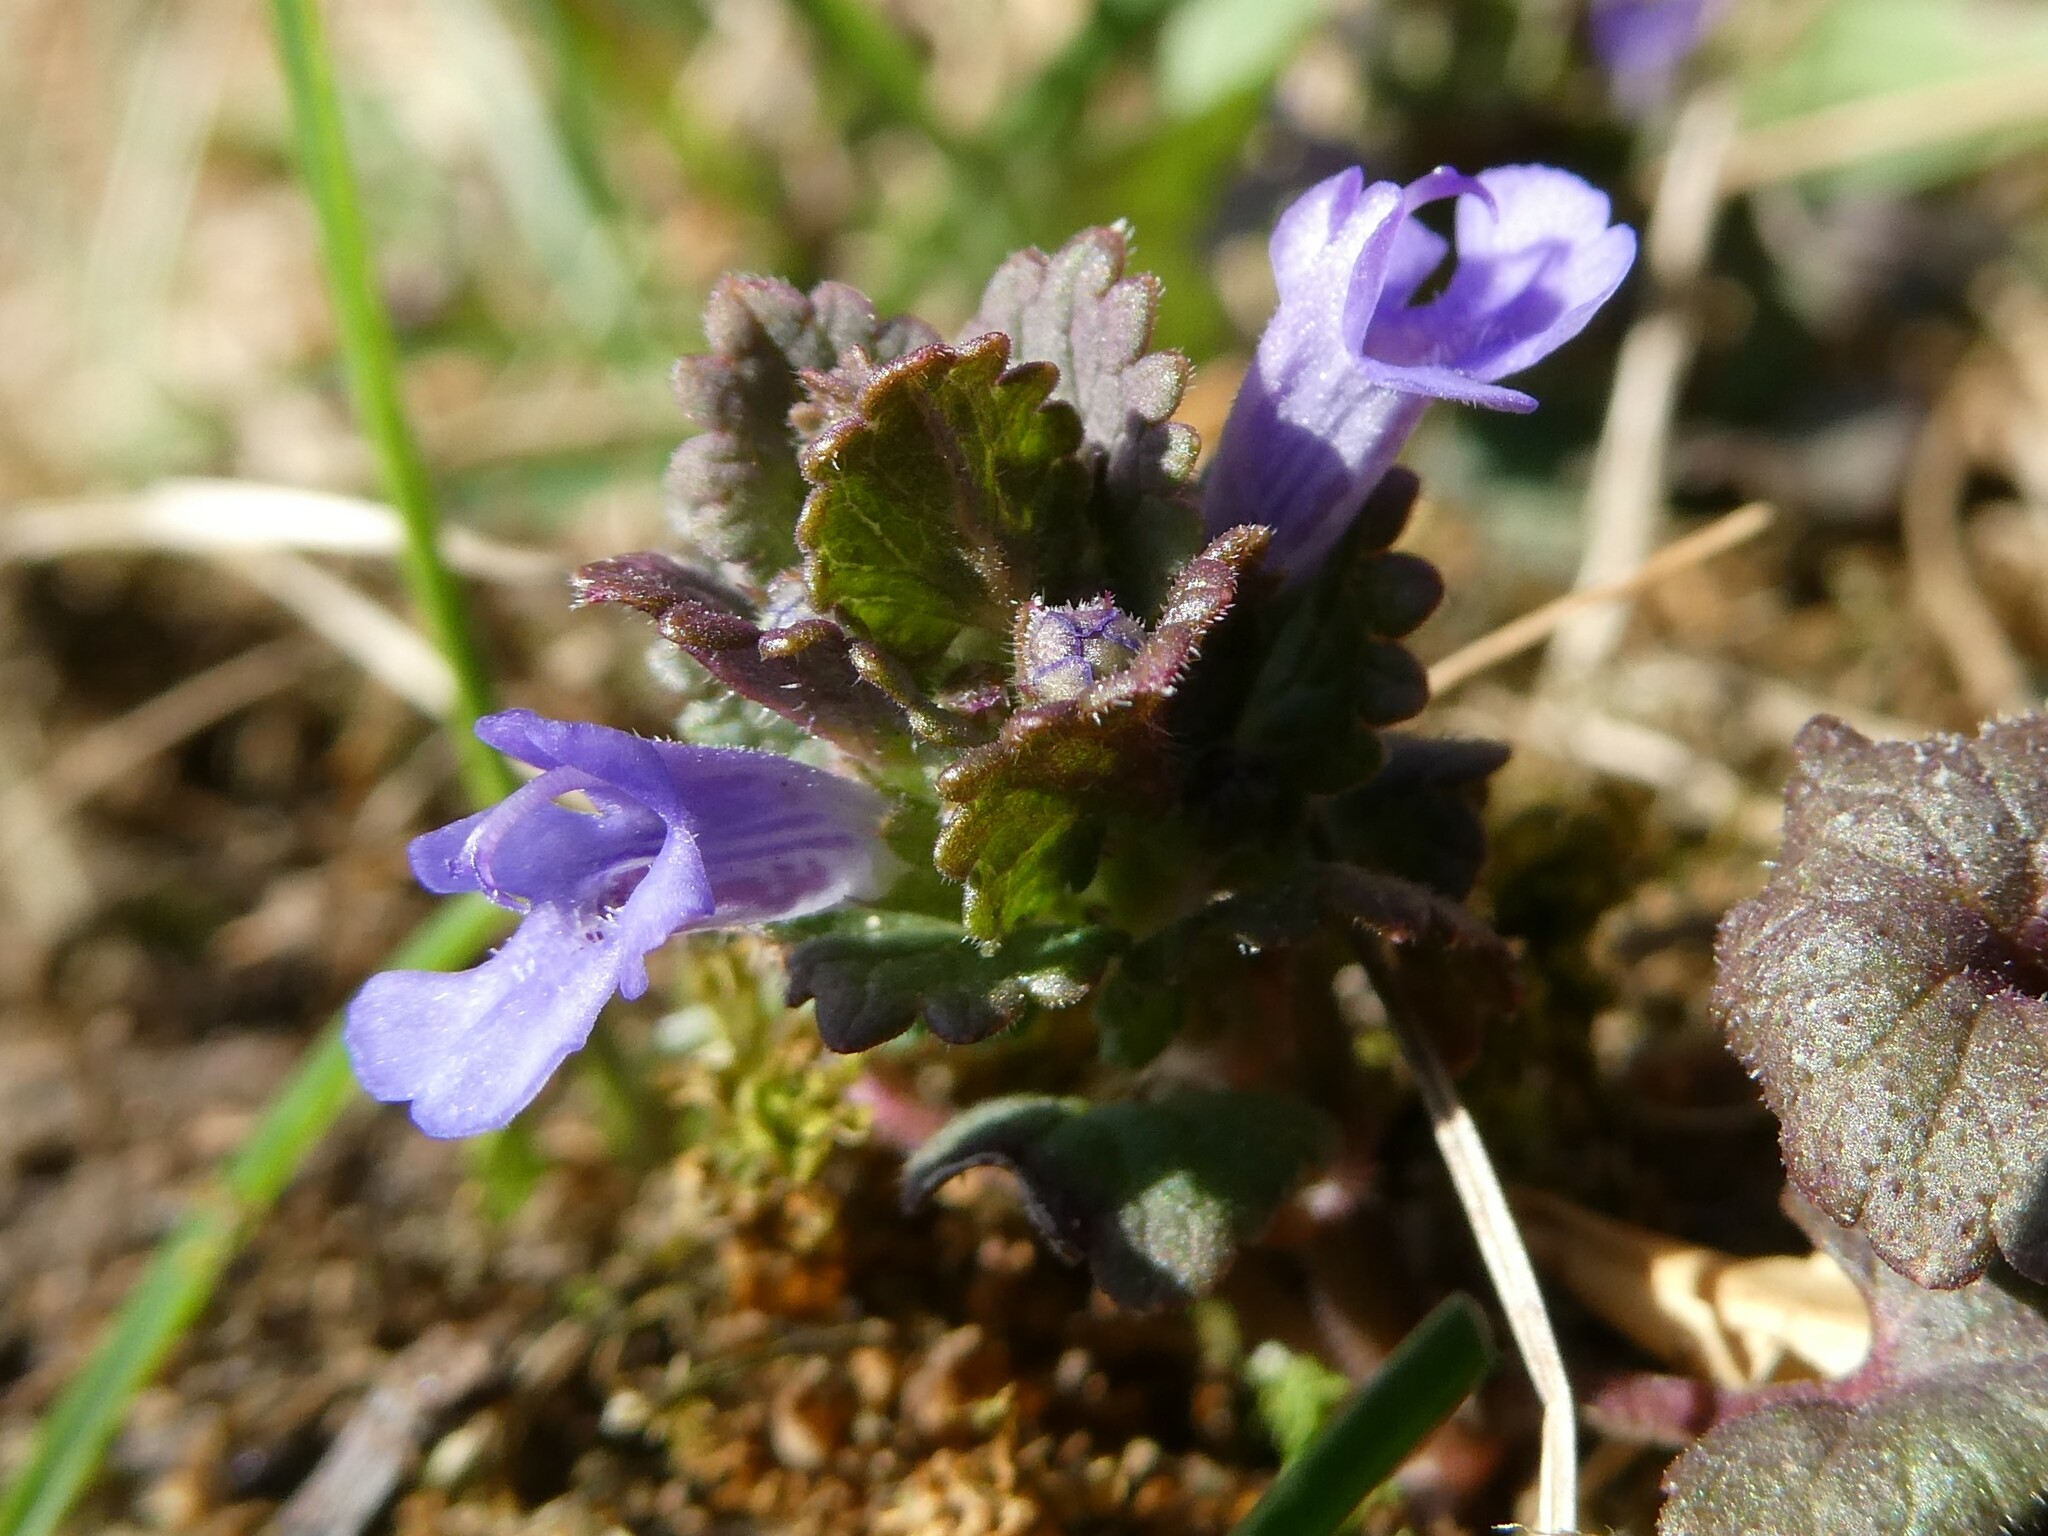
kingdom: Plantae
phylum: Tracheophyta
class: Magnoliopsida
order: Lamiales
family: Lamiaceae
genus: Glechoma
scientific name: Glechoma hederacea
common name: Ground ivy
